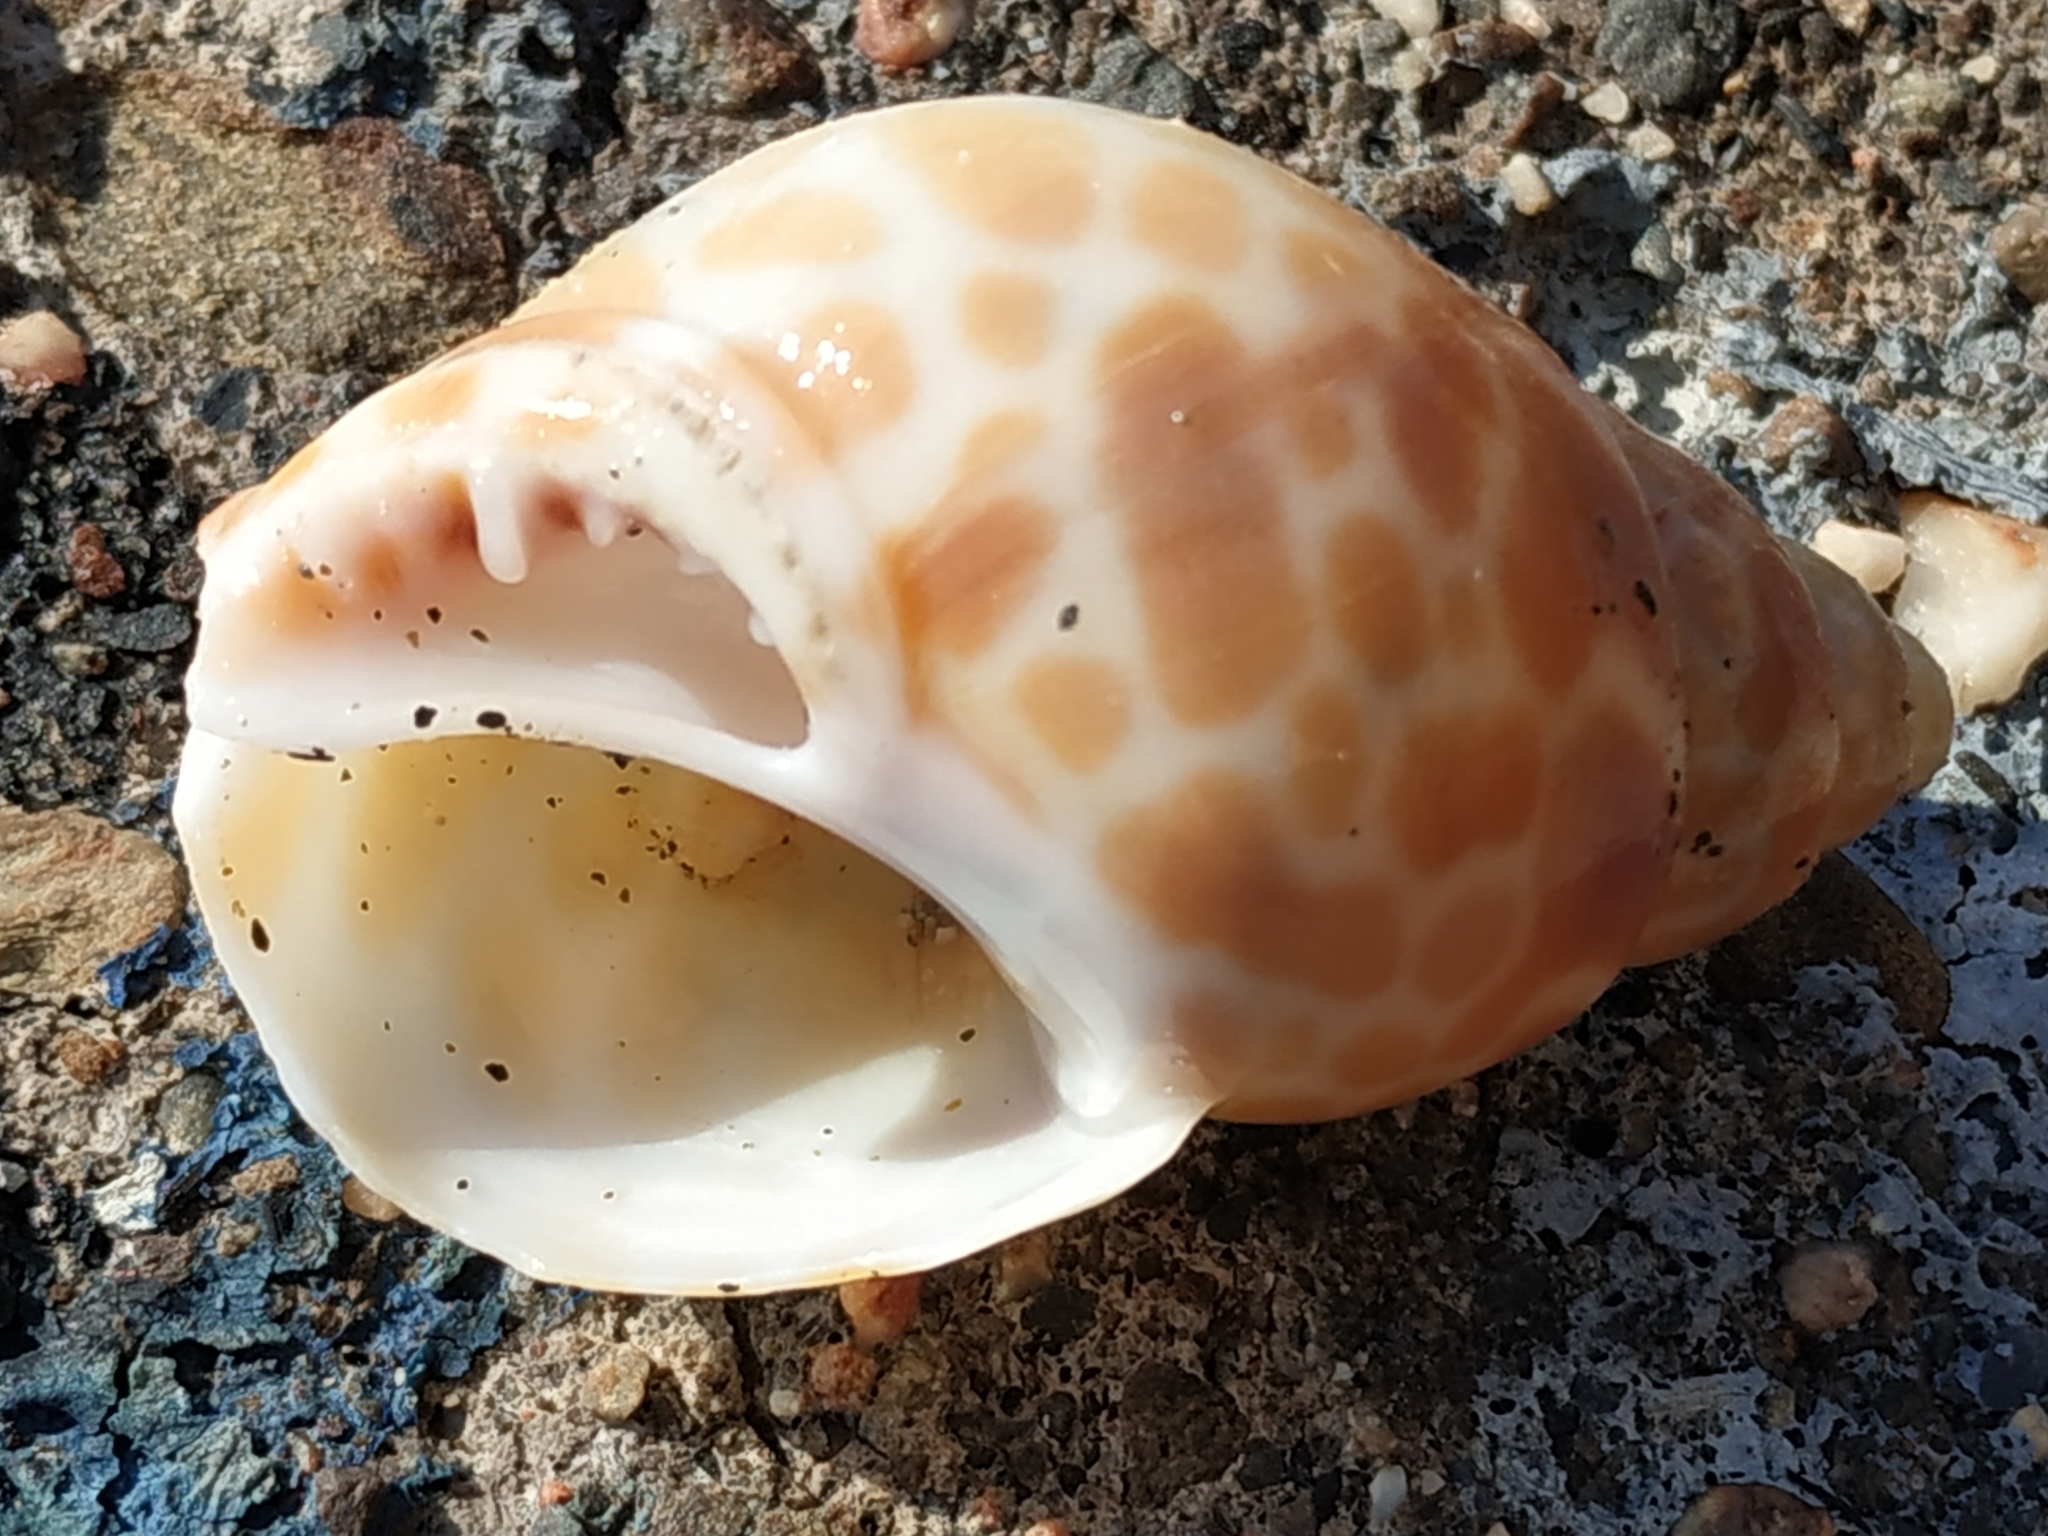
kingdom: Animalia
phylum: Mollusca
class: Gastropoda
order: Neogastropoda
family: Babyloniidae
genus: Babylonia
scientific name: Babylonia zeylanica
